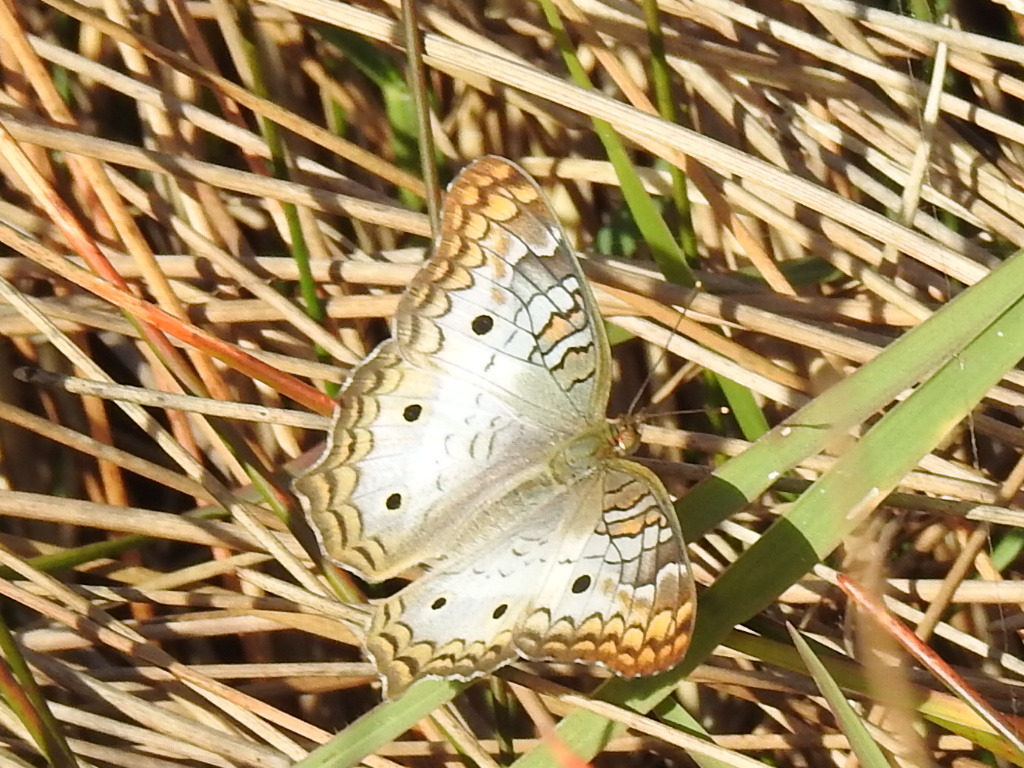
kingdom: Animalia
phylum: Arthropoda
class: Insecta
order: Lepidoptera
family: Nymphalidae
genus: Anartia
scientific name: Anartia jatrophae
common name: White peacock
